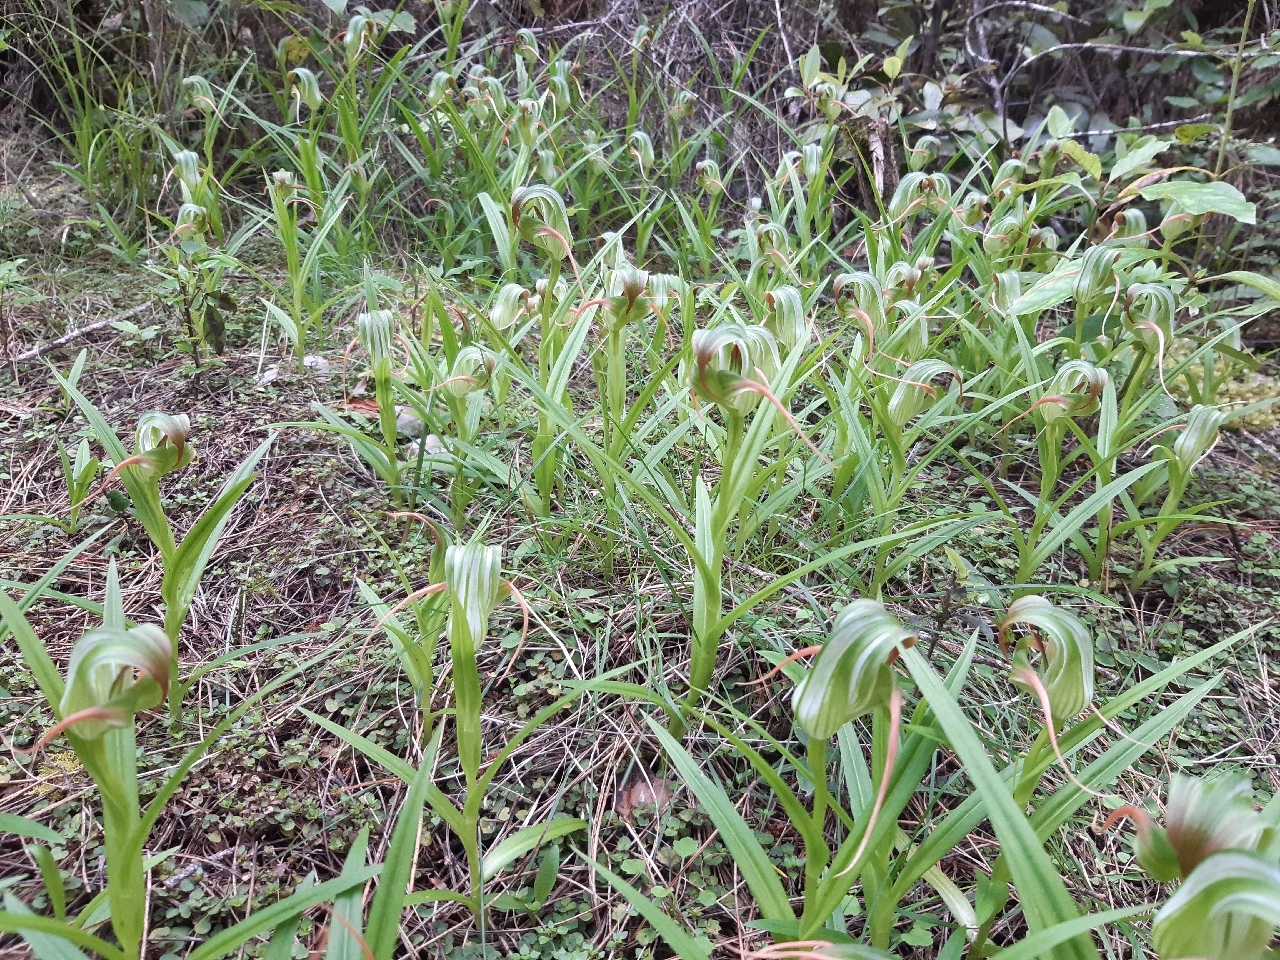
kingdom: Plantae
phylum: Tracheophyta
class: Liliopsida
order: Asparagales
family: Orchidaceae
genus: Pterostylis
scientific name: Pterostylis patens
